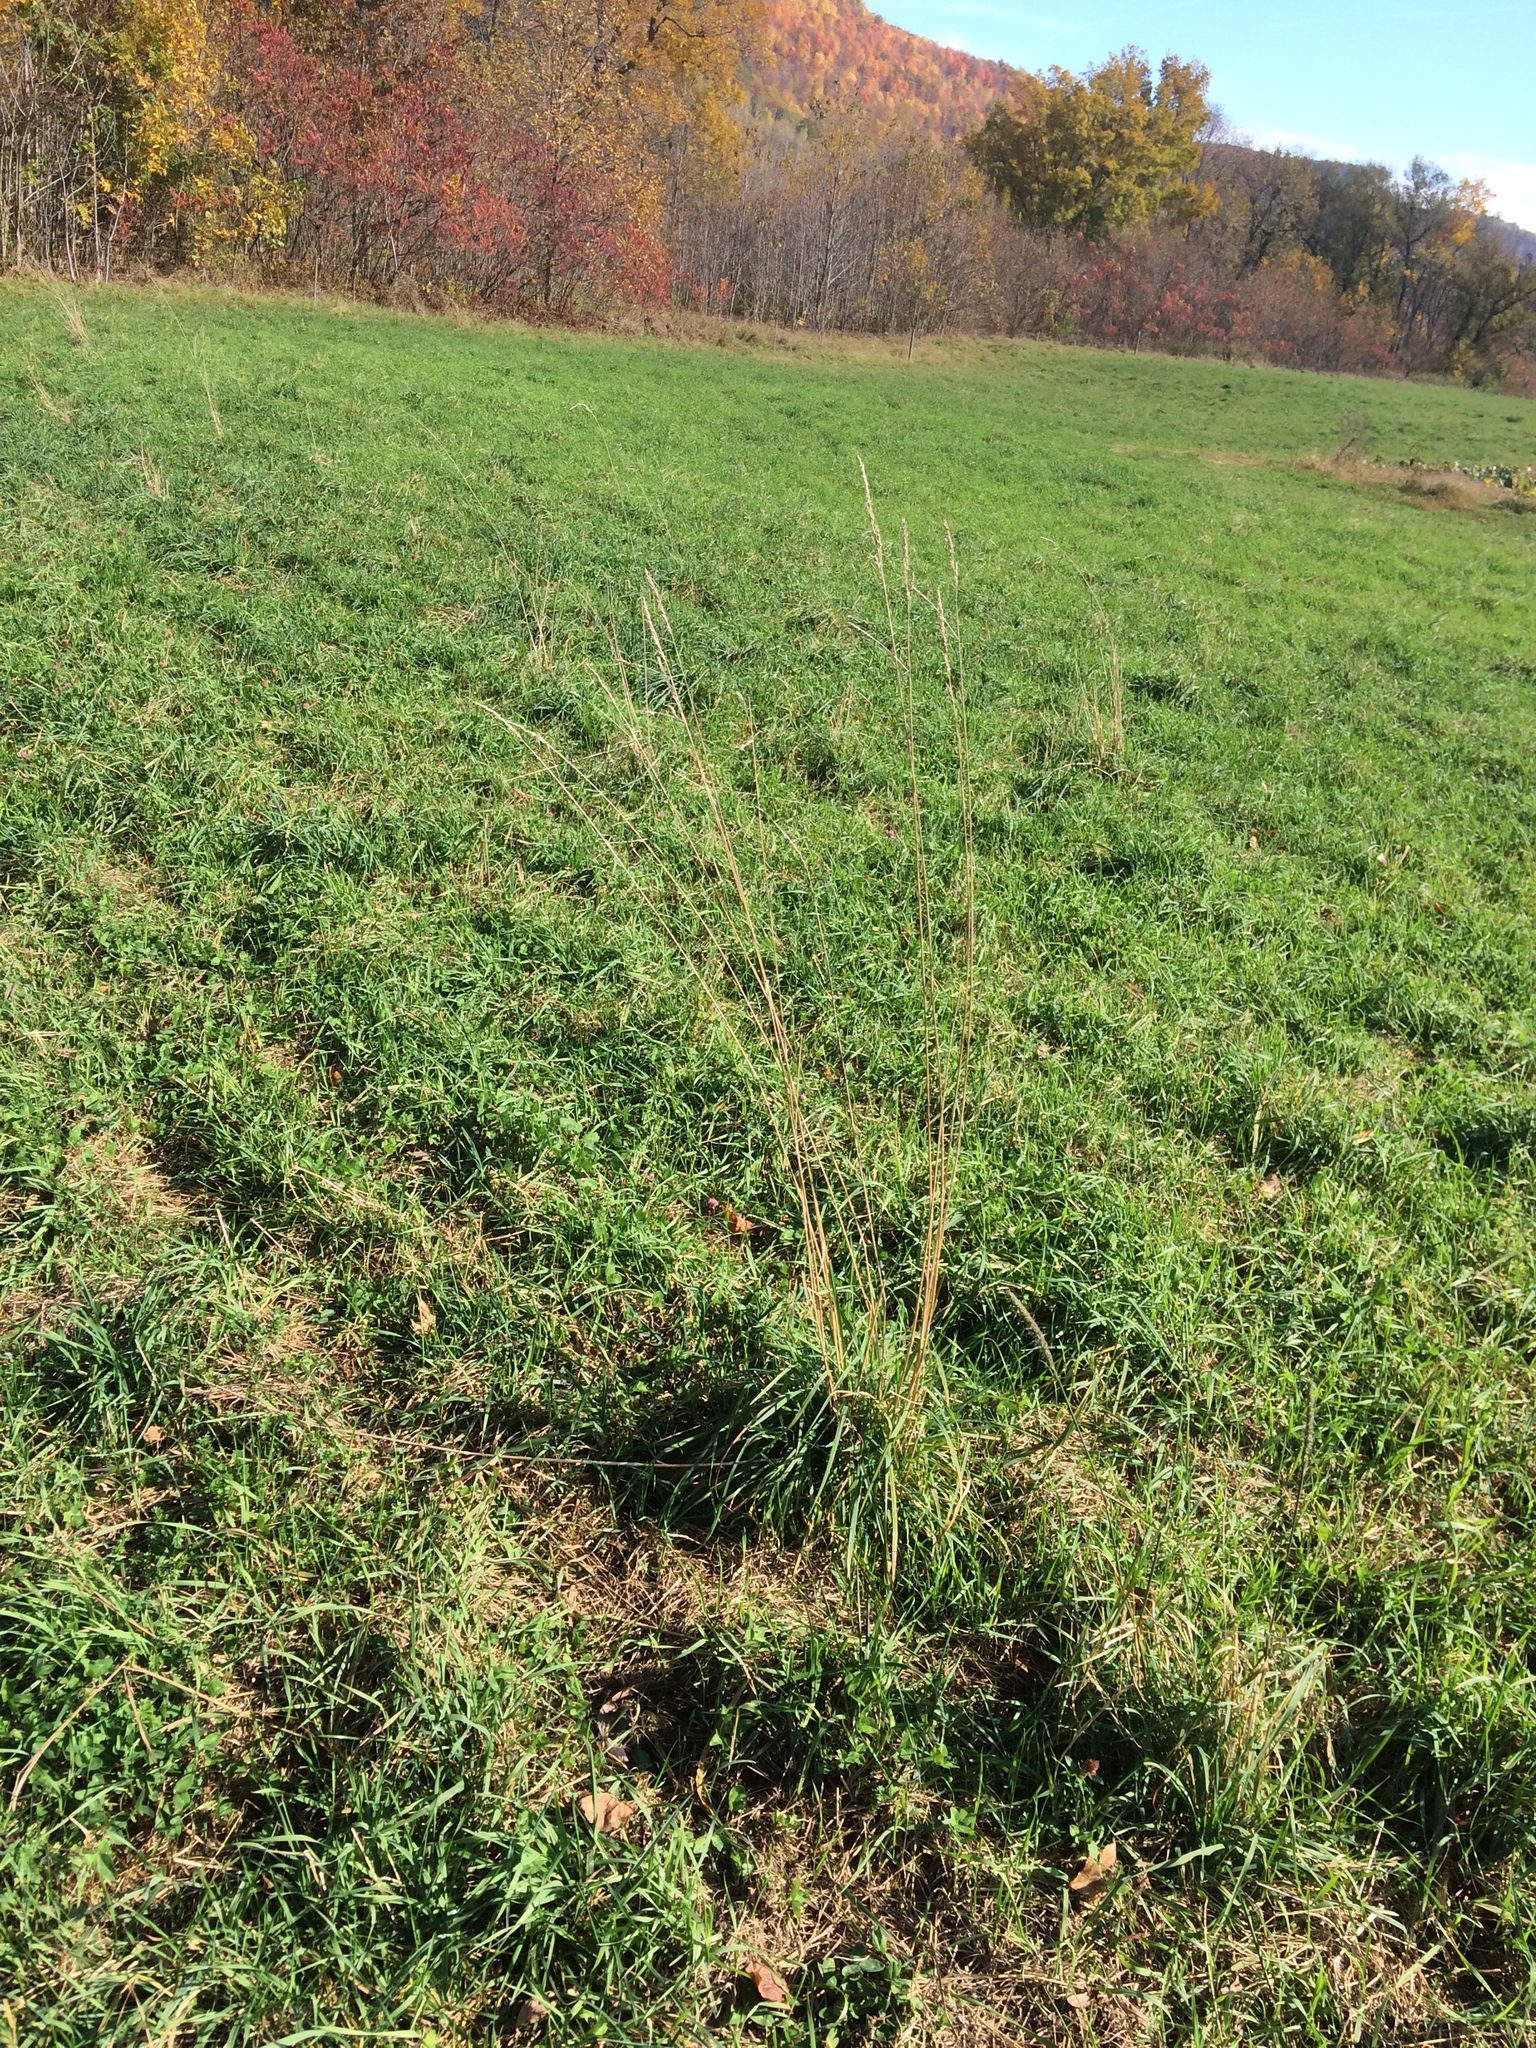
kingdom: Plantae
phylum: Tracheophyta
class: Liliopsida
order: Poales
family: Poaceae
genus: Dactylis
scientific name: Dactylis glomerata
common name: Orchardgrass
